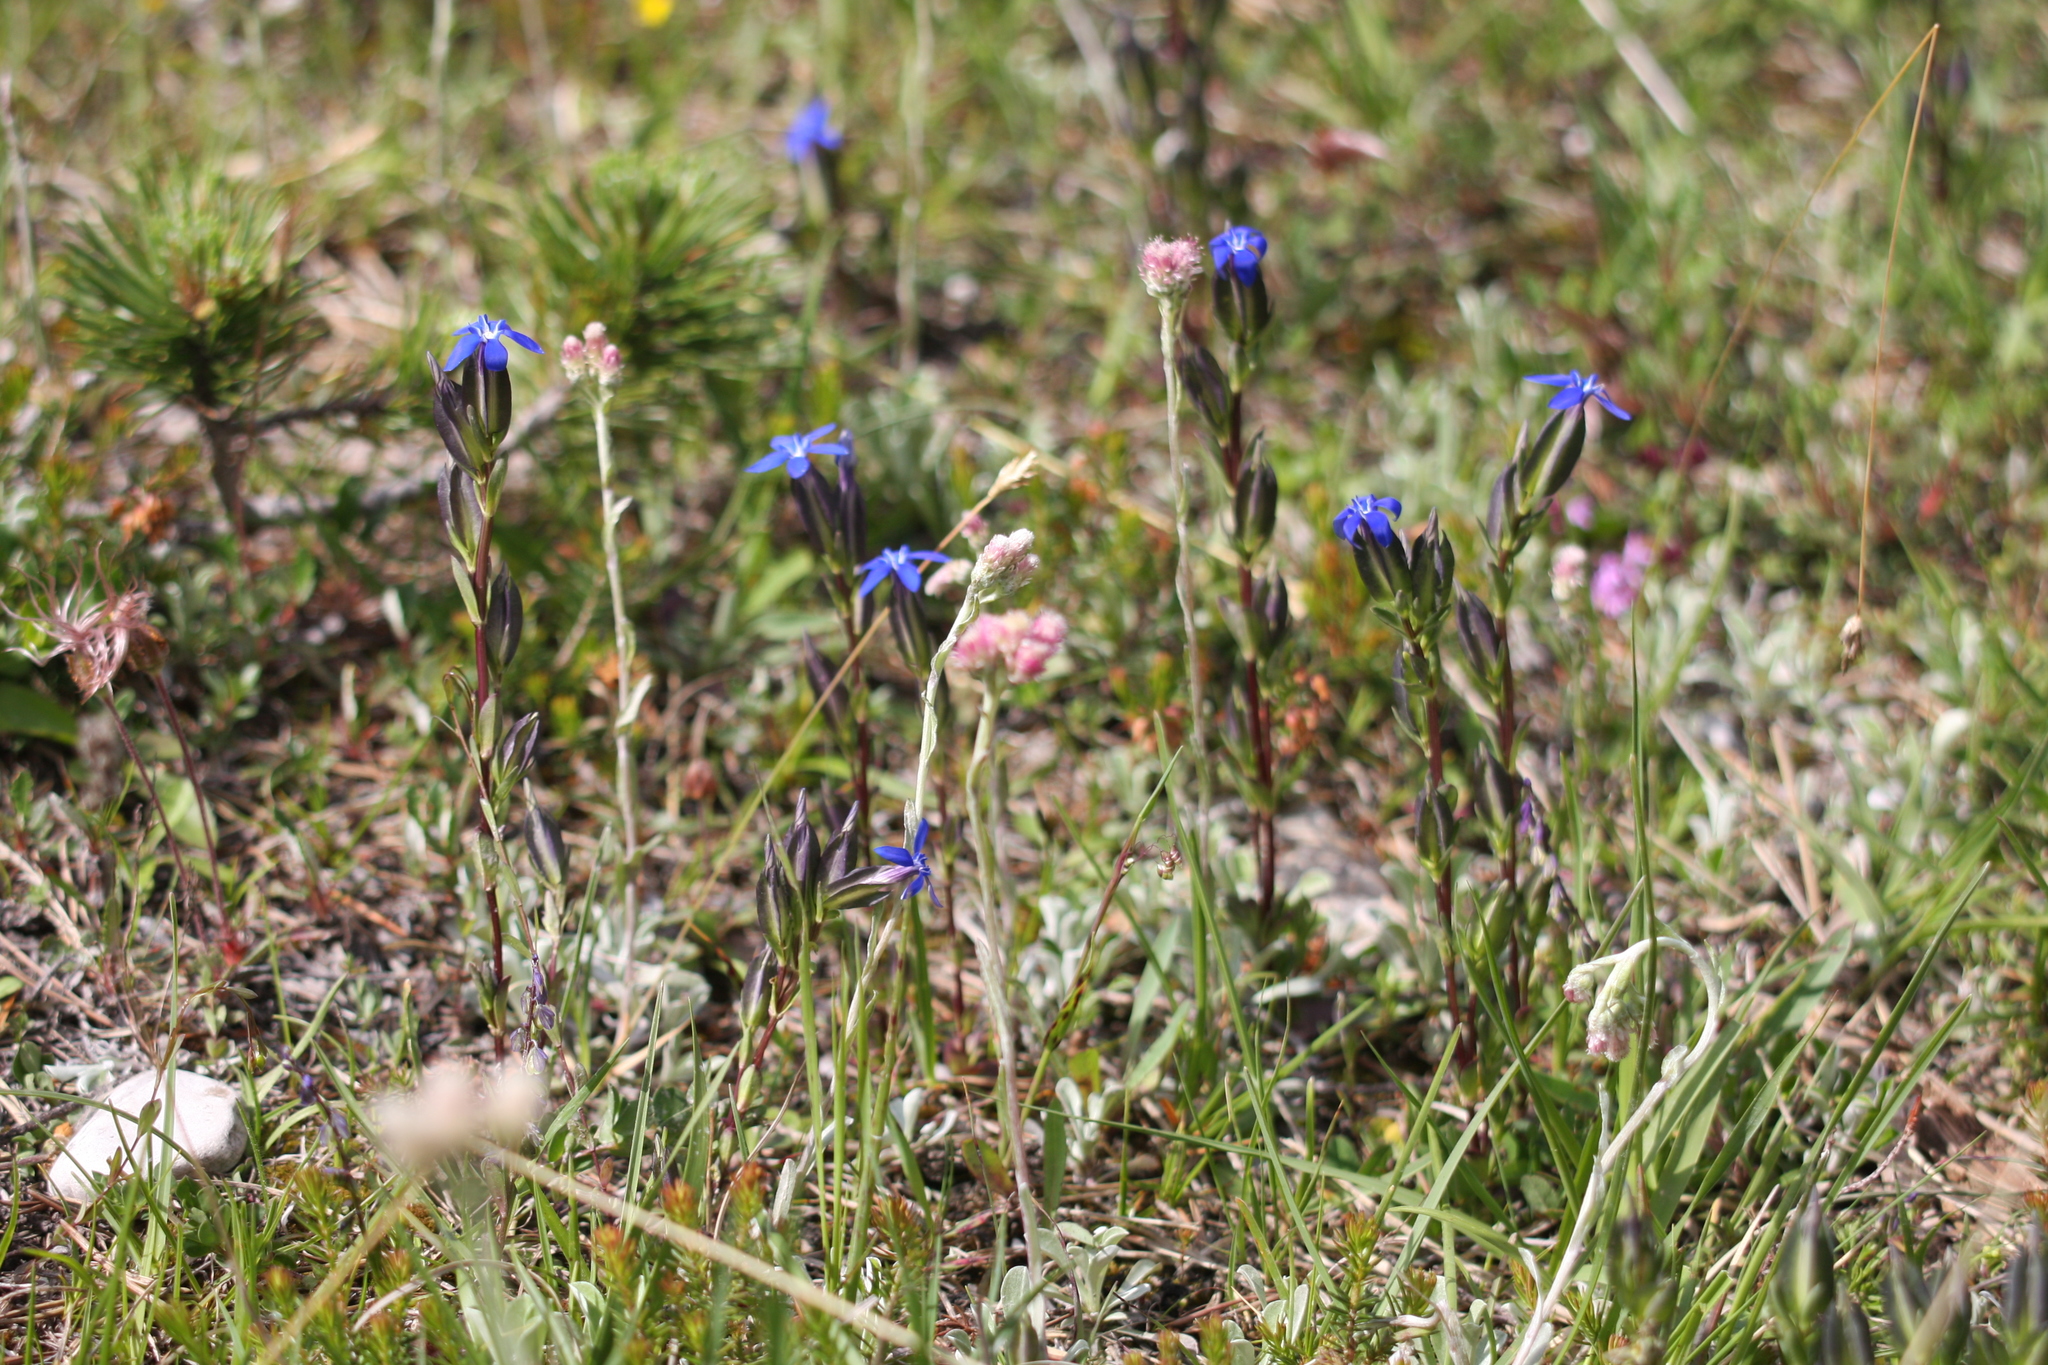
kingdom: Plantae
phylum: Tracheophyta
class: Magnoliopsida
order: Gentianales
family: Gentianaceae
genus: Gentiana
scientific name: Gentiana utriculosa
